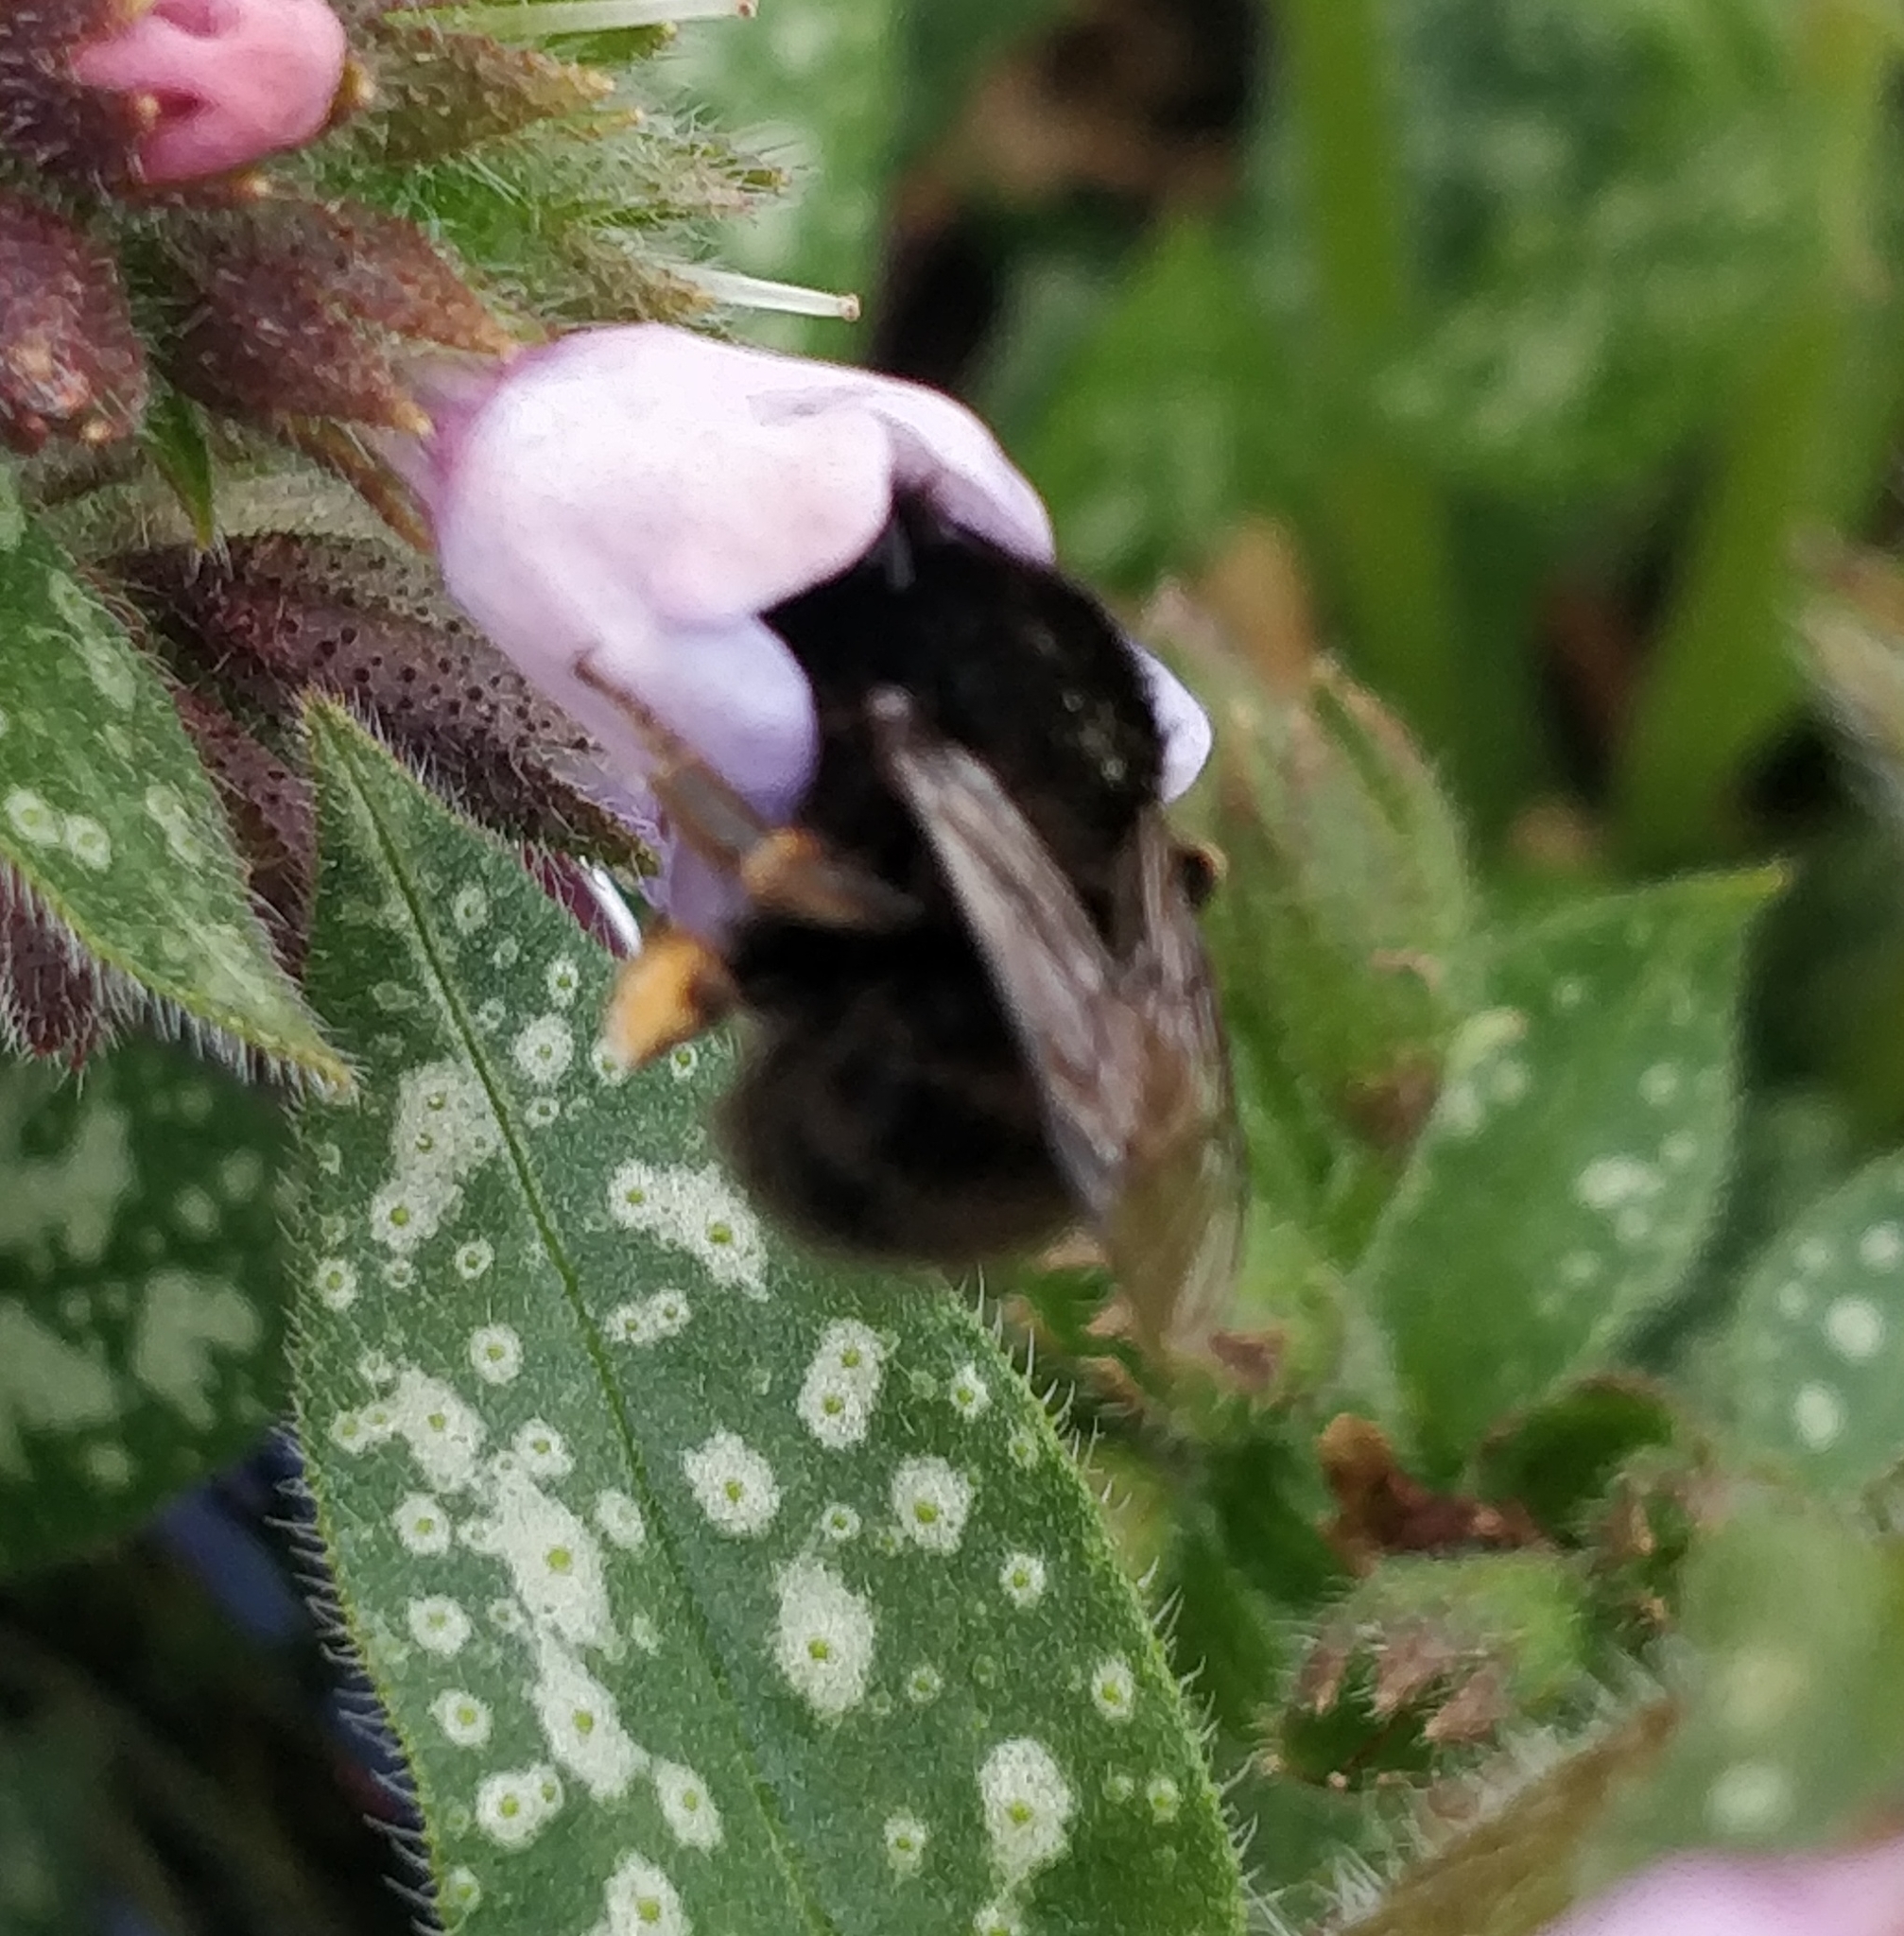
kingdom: Animalia
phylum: Arthropoda
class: Insecta
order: Hymenoptera
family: Apidae
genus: Anthophora
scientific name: Anthophora plumipes
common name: Hairy-footed flower bee
